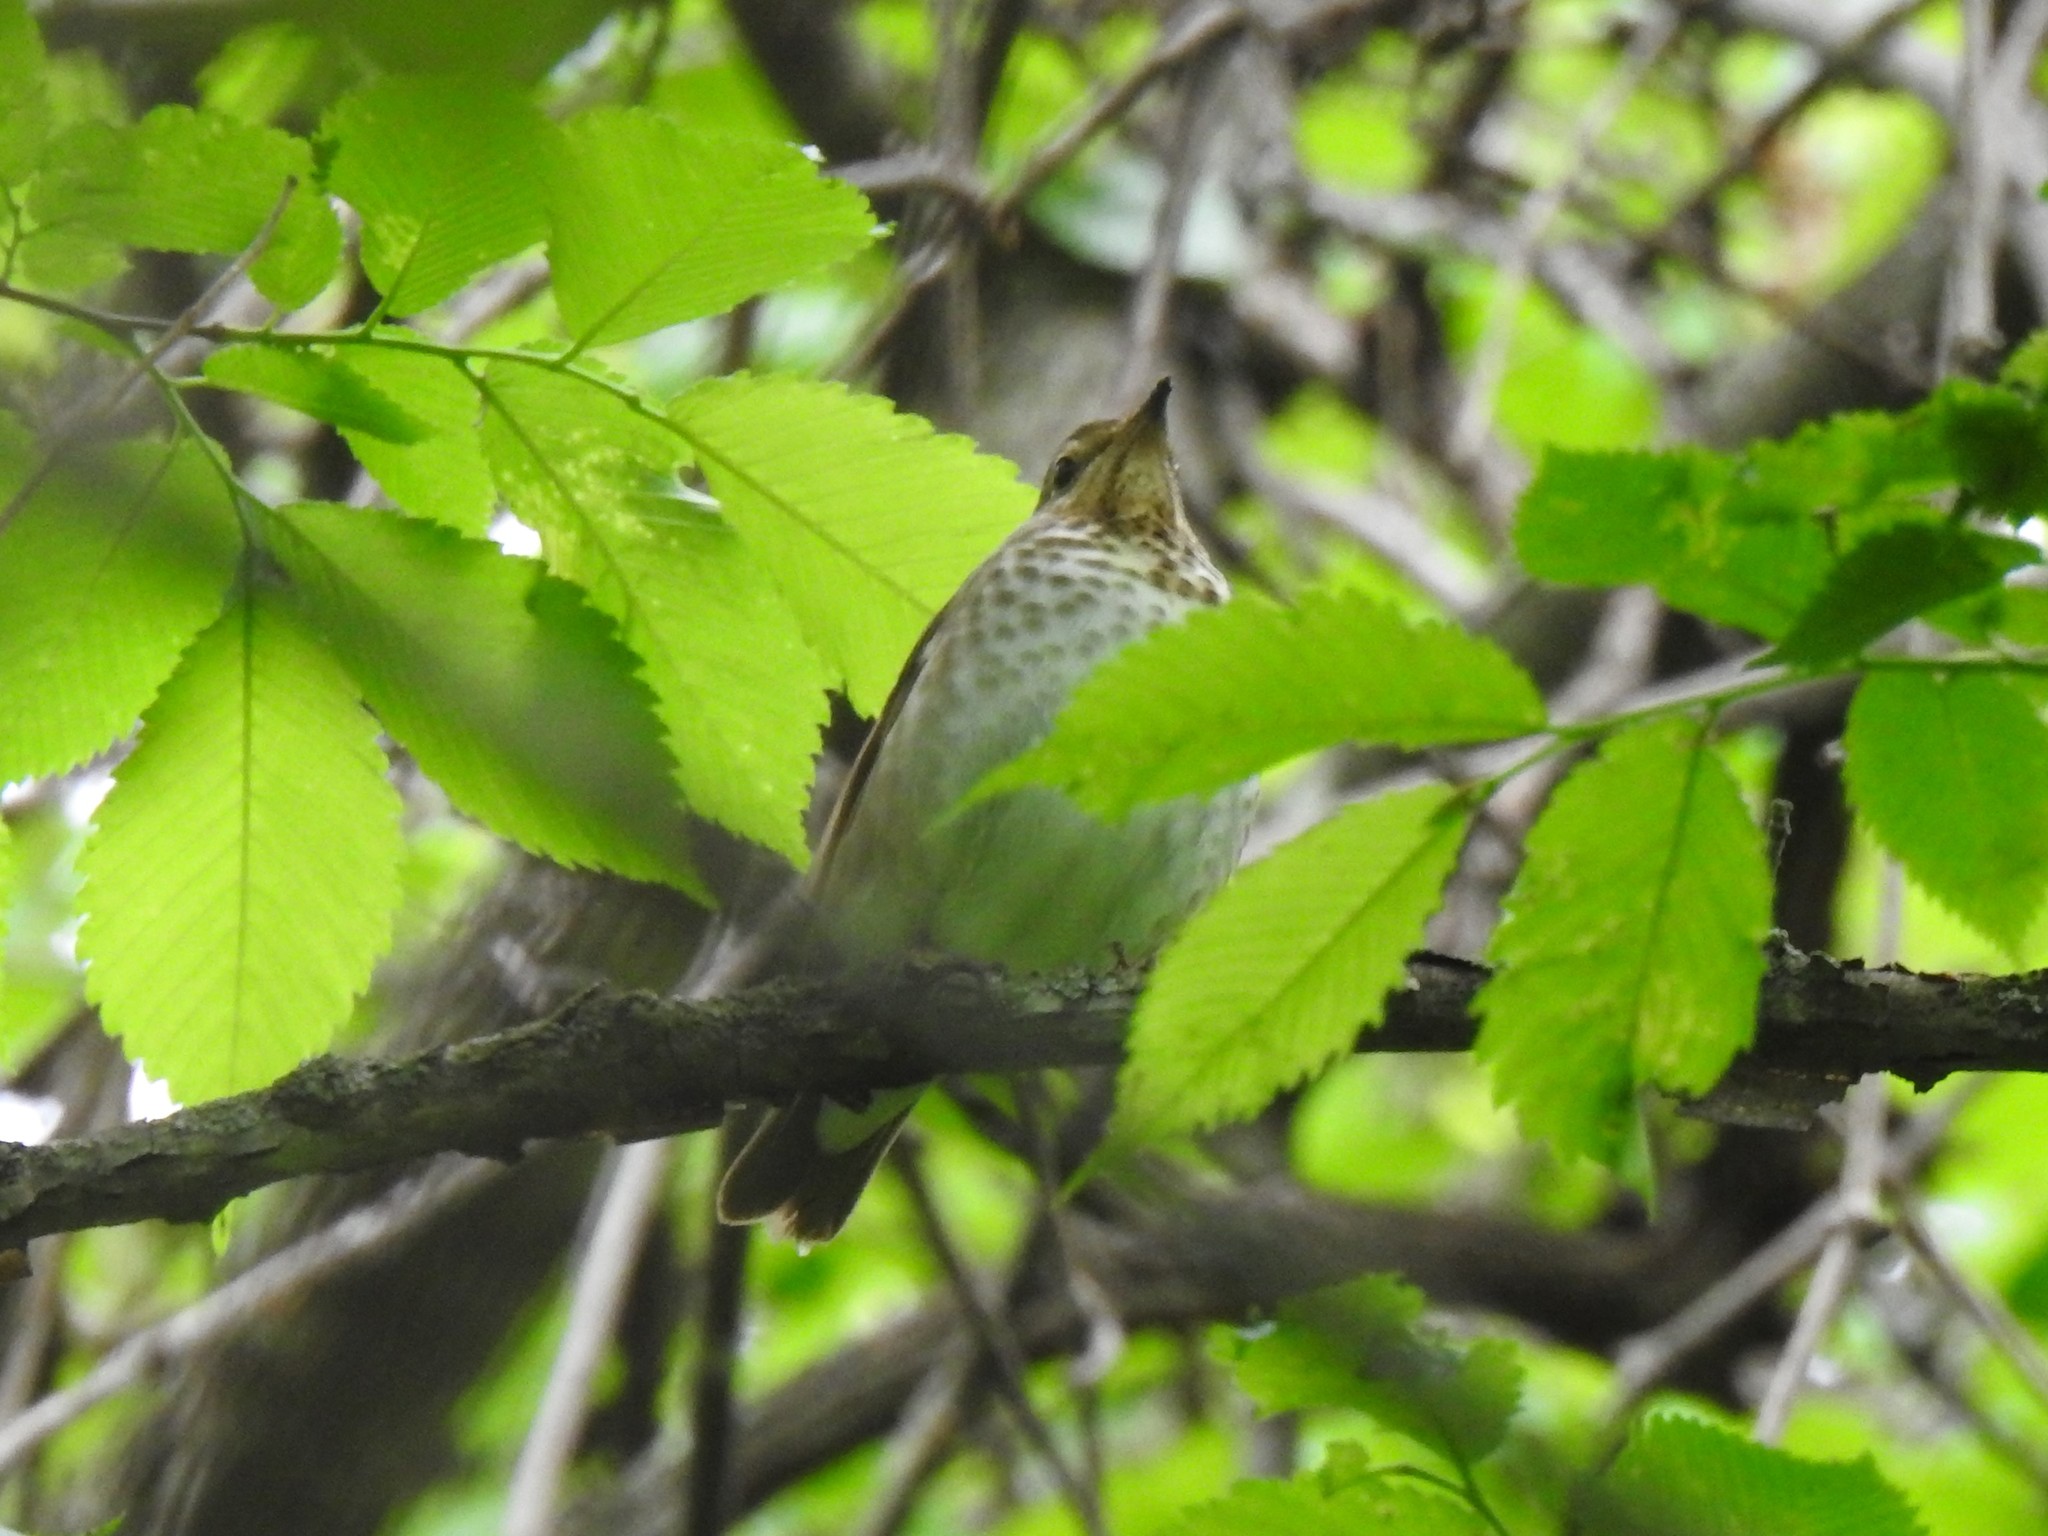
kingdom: Animalia
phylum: Chordata
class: Aves
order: Passeriformes
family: Turdidae
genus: Catharus
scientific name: Catharus ustulatus
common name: Swainson's thrush
